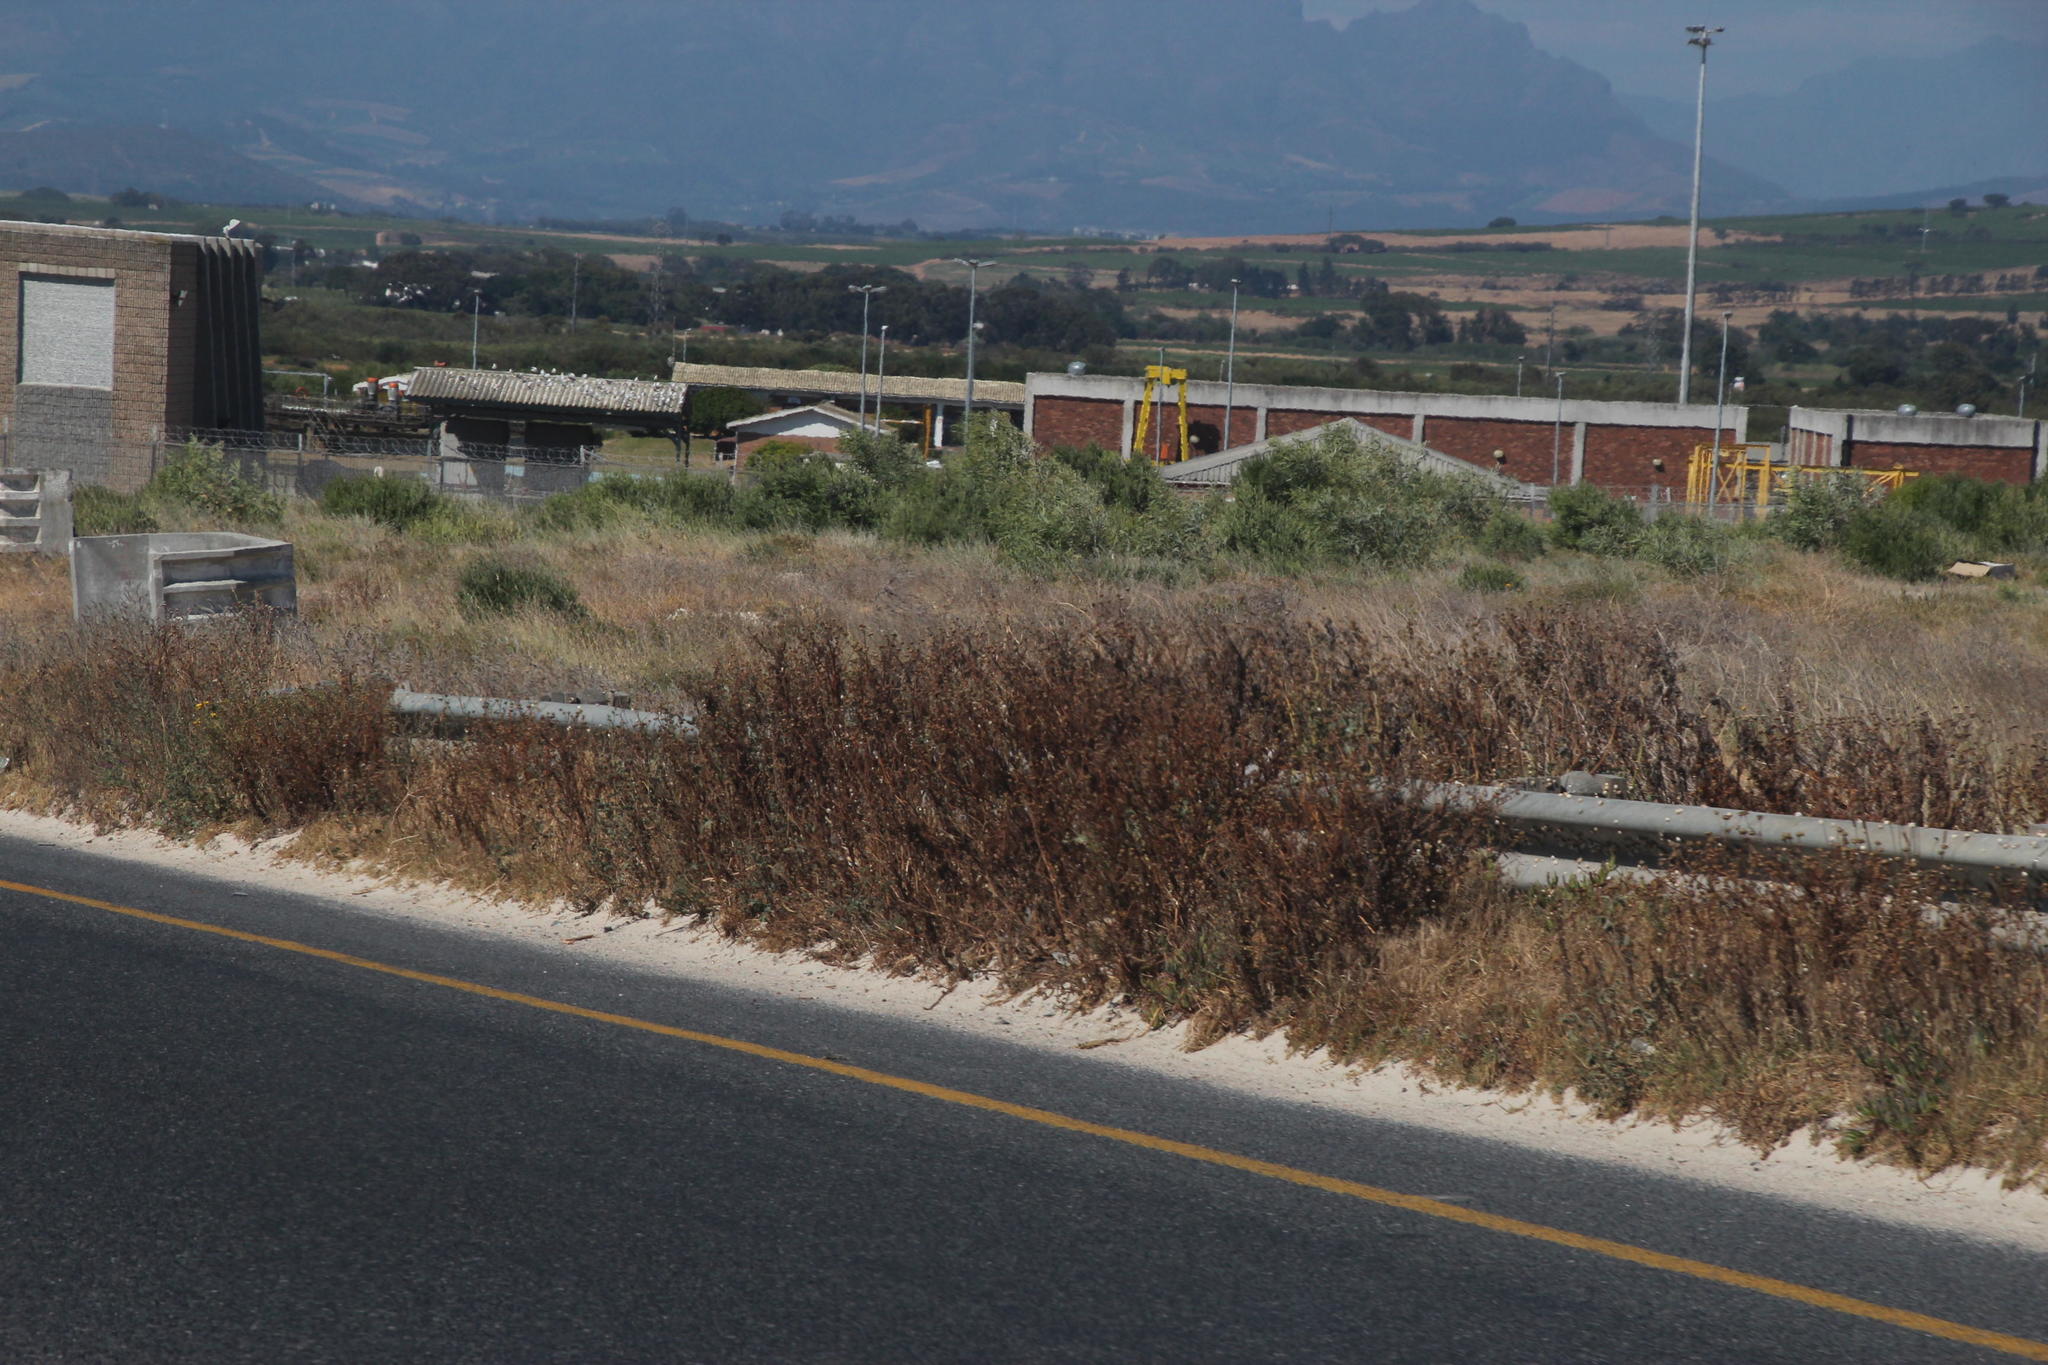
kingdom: Plantae
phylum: Tracheophyta
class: Magnoliopsida
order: Asterales
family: Asteraceae
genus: Glebionis
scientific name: Glebionis coronaria
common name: Crowndaisy
